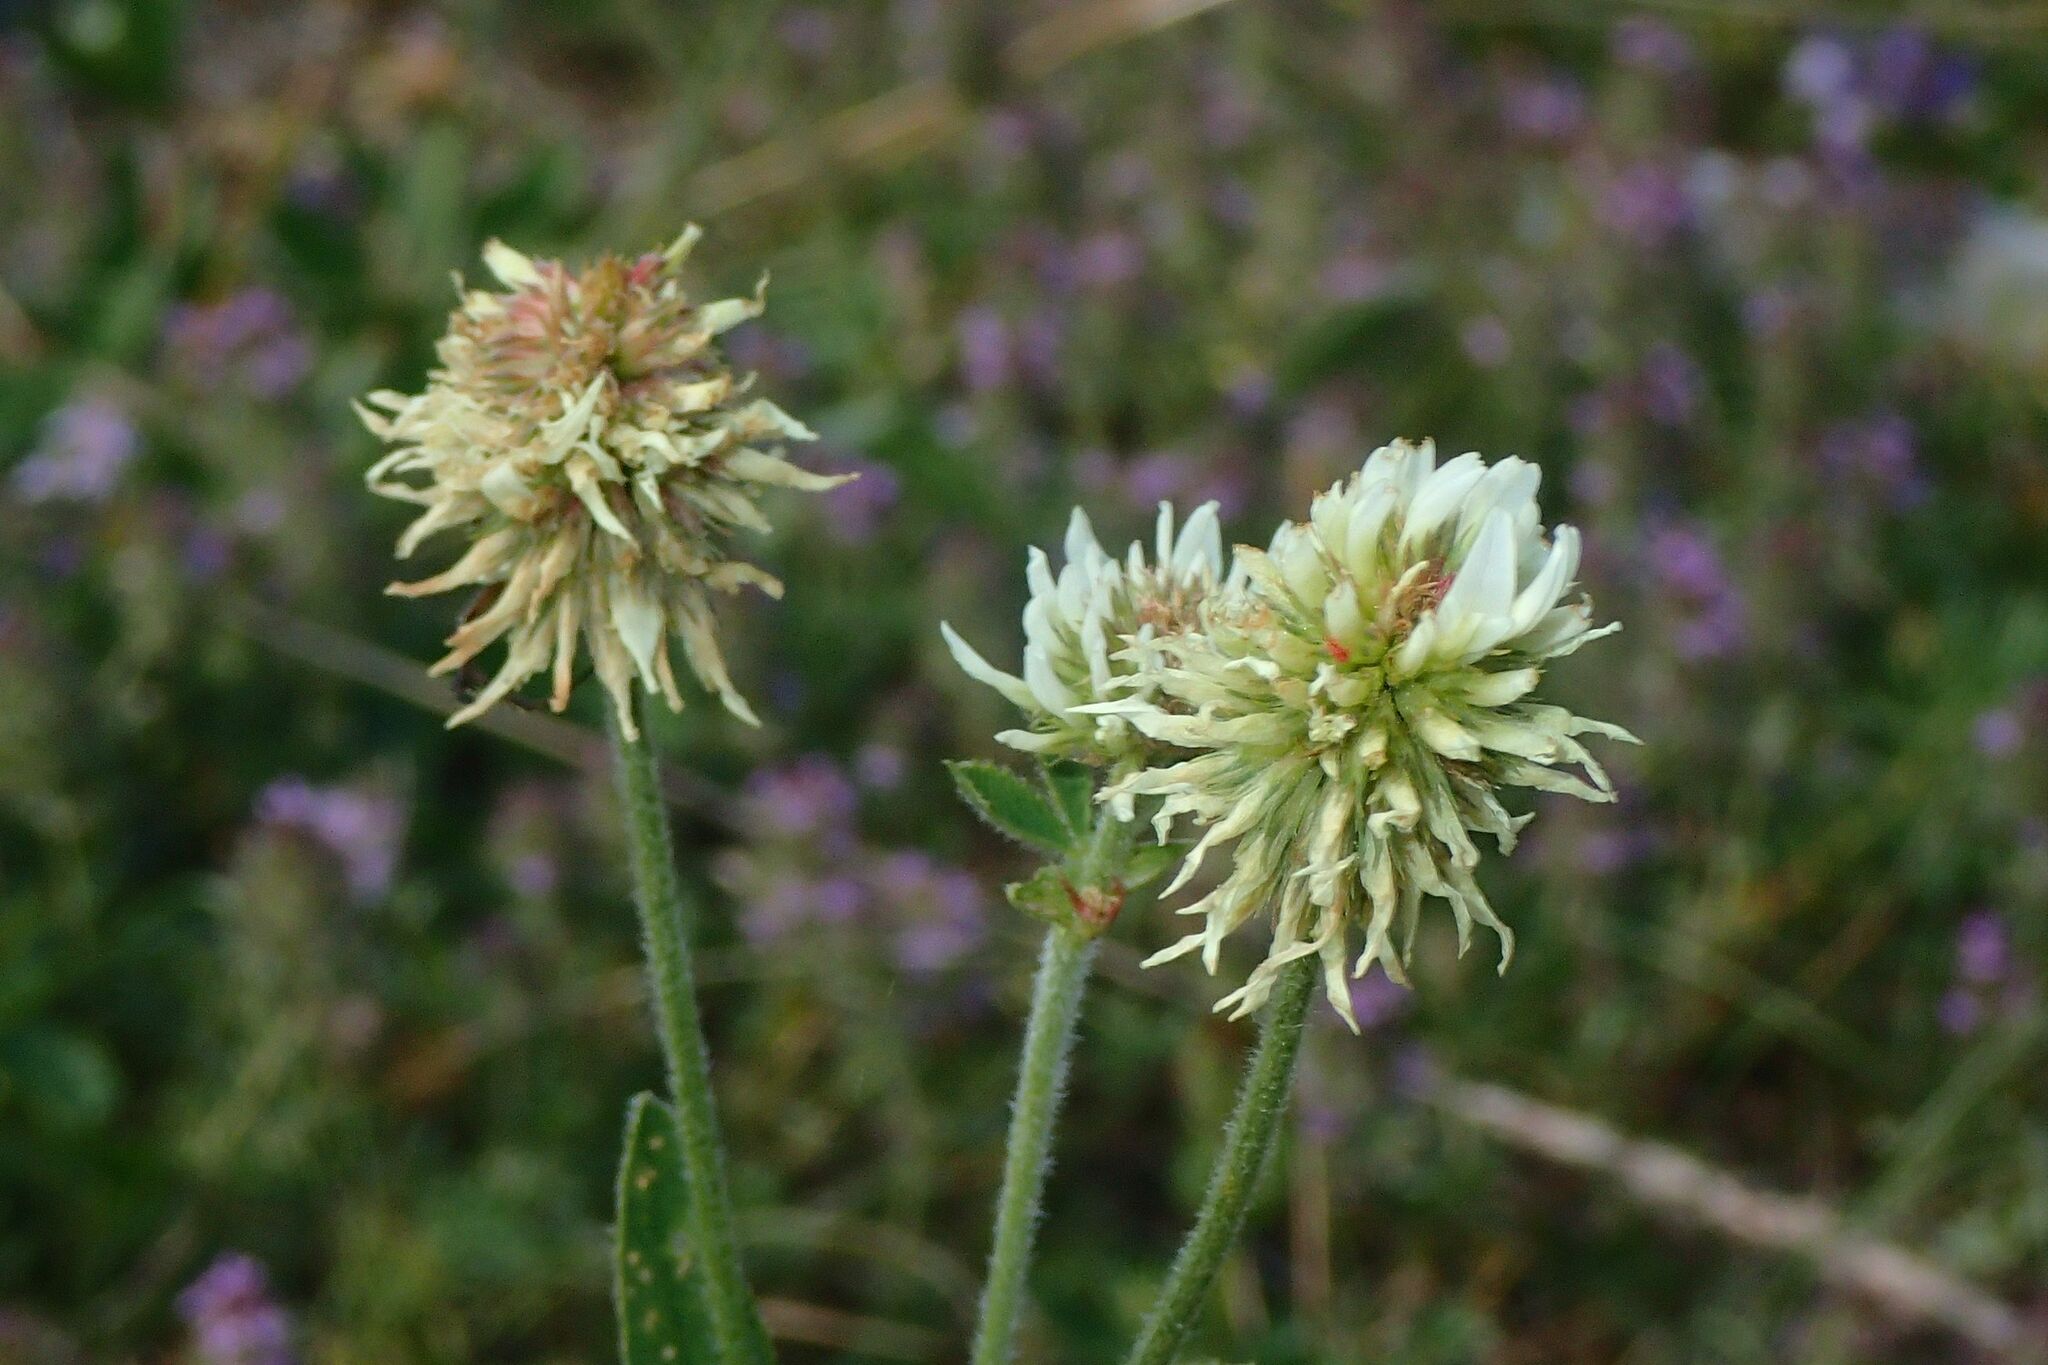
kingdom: Plantae
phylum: Tracheophyta
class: Magnoliopsida
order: Fabales
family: Fabaceae
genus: Trifolium
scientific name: Trifolium montanum
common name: Mountain clover
